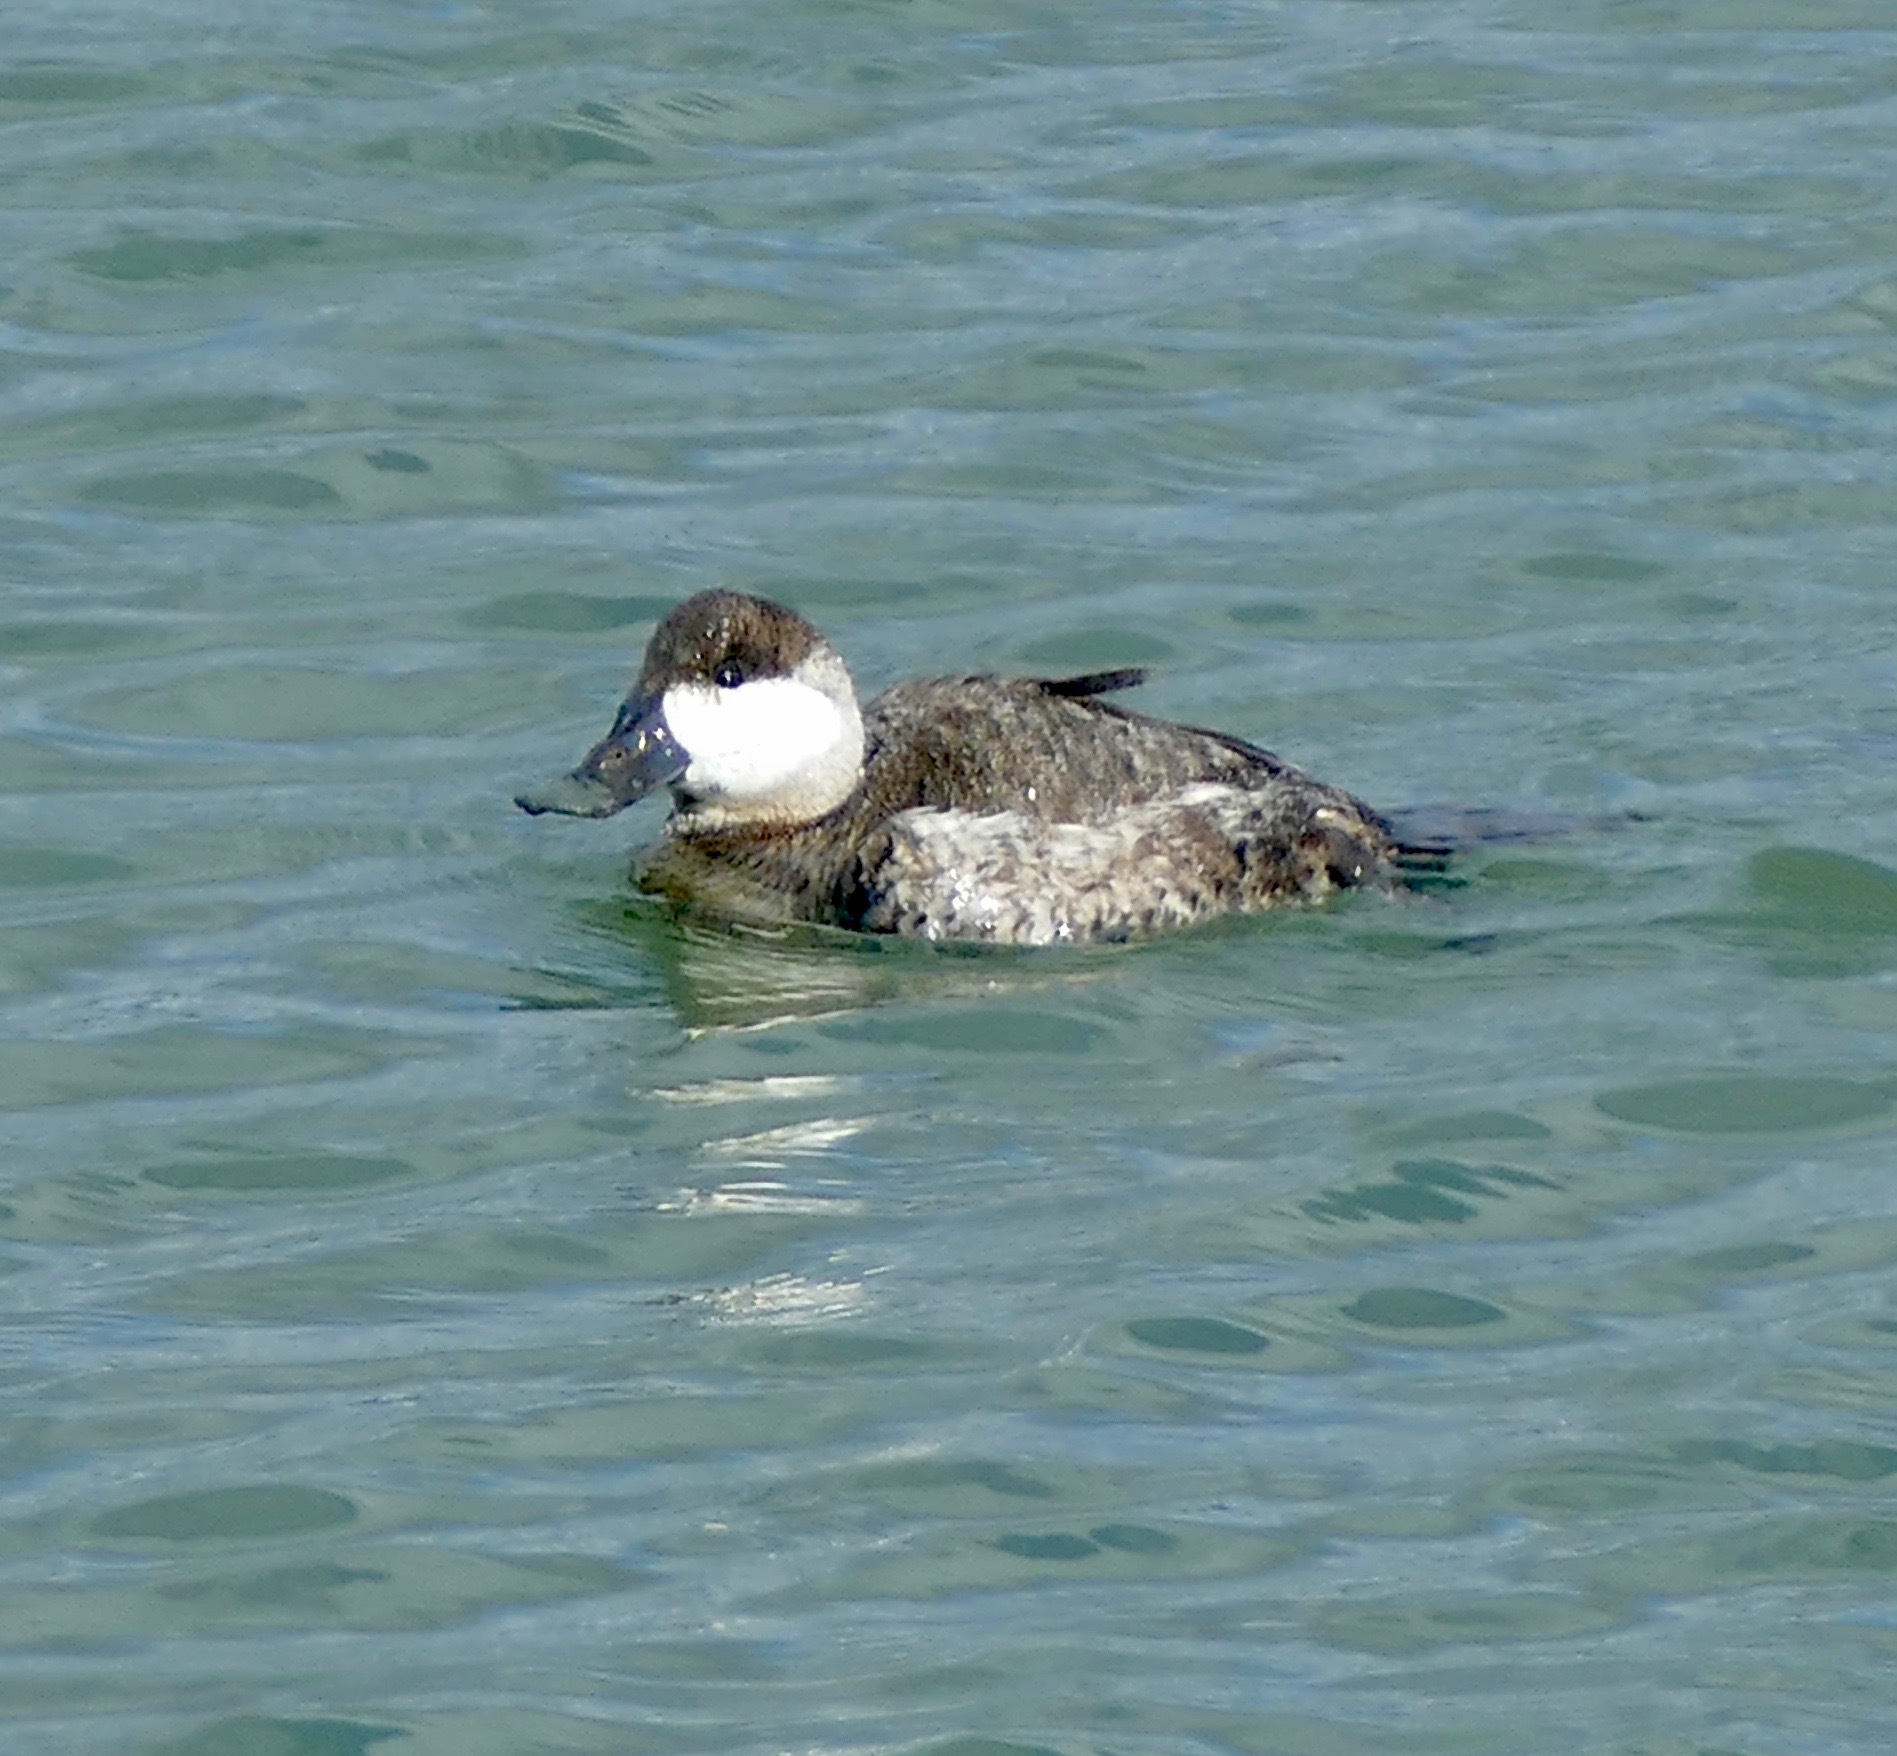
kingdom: Animalia
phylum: Chordata
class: Aves
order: Anseriformes
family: Anatidae
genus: Oxyura
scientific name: Oxyura jamaicensis
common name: Ruddy duck
